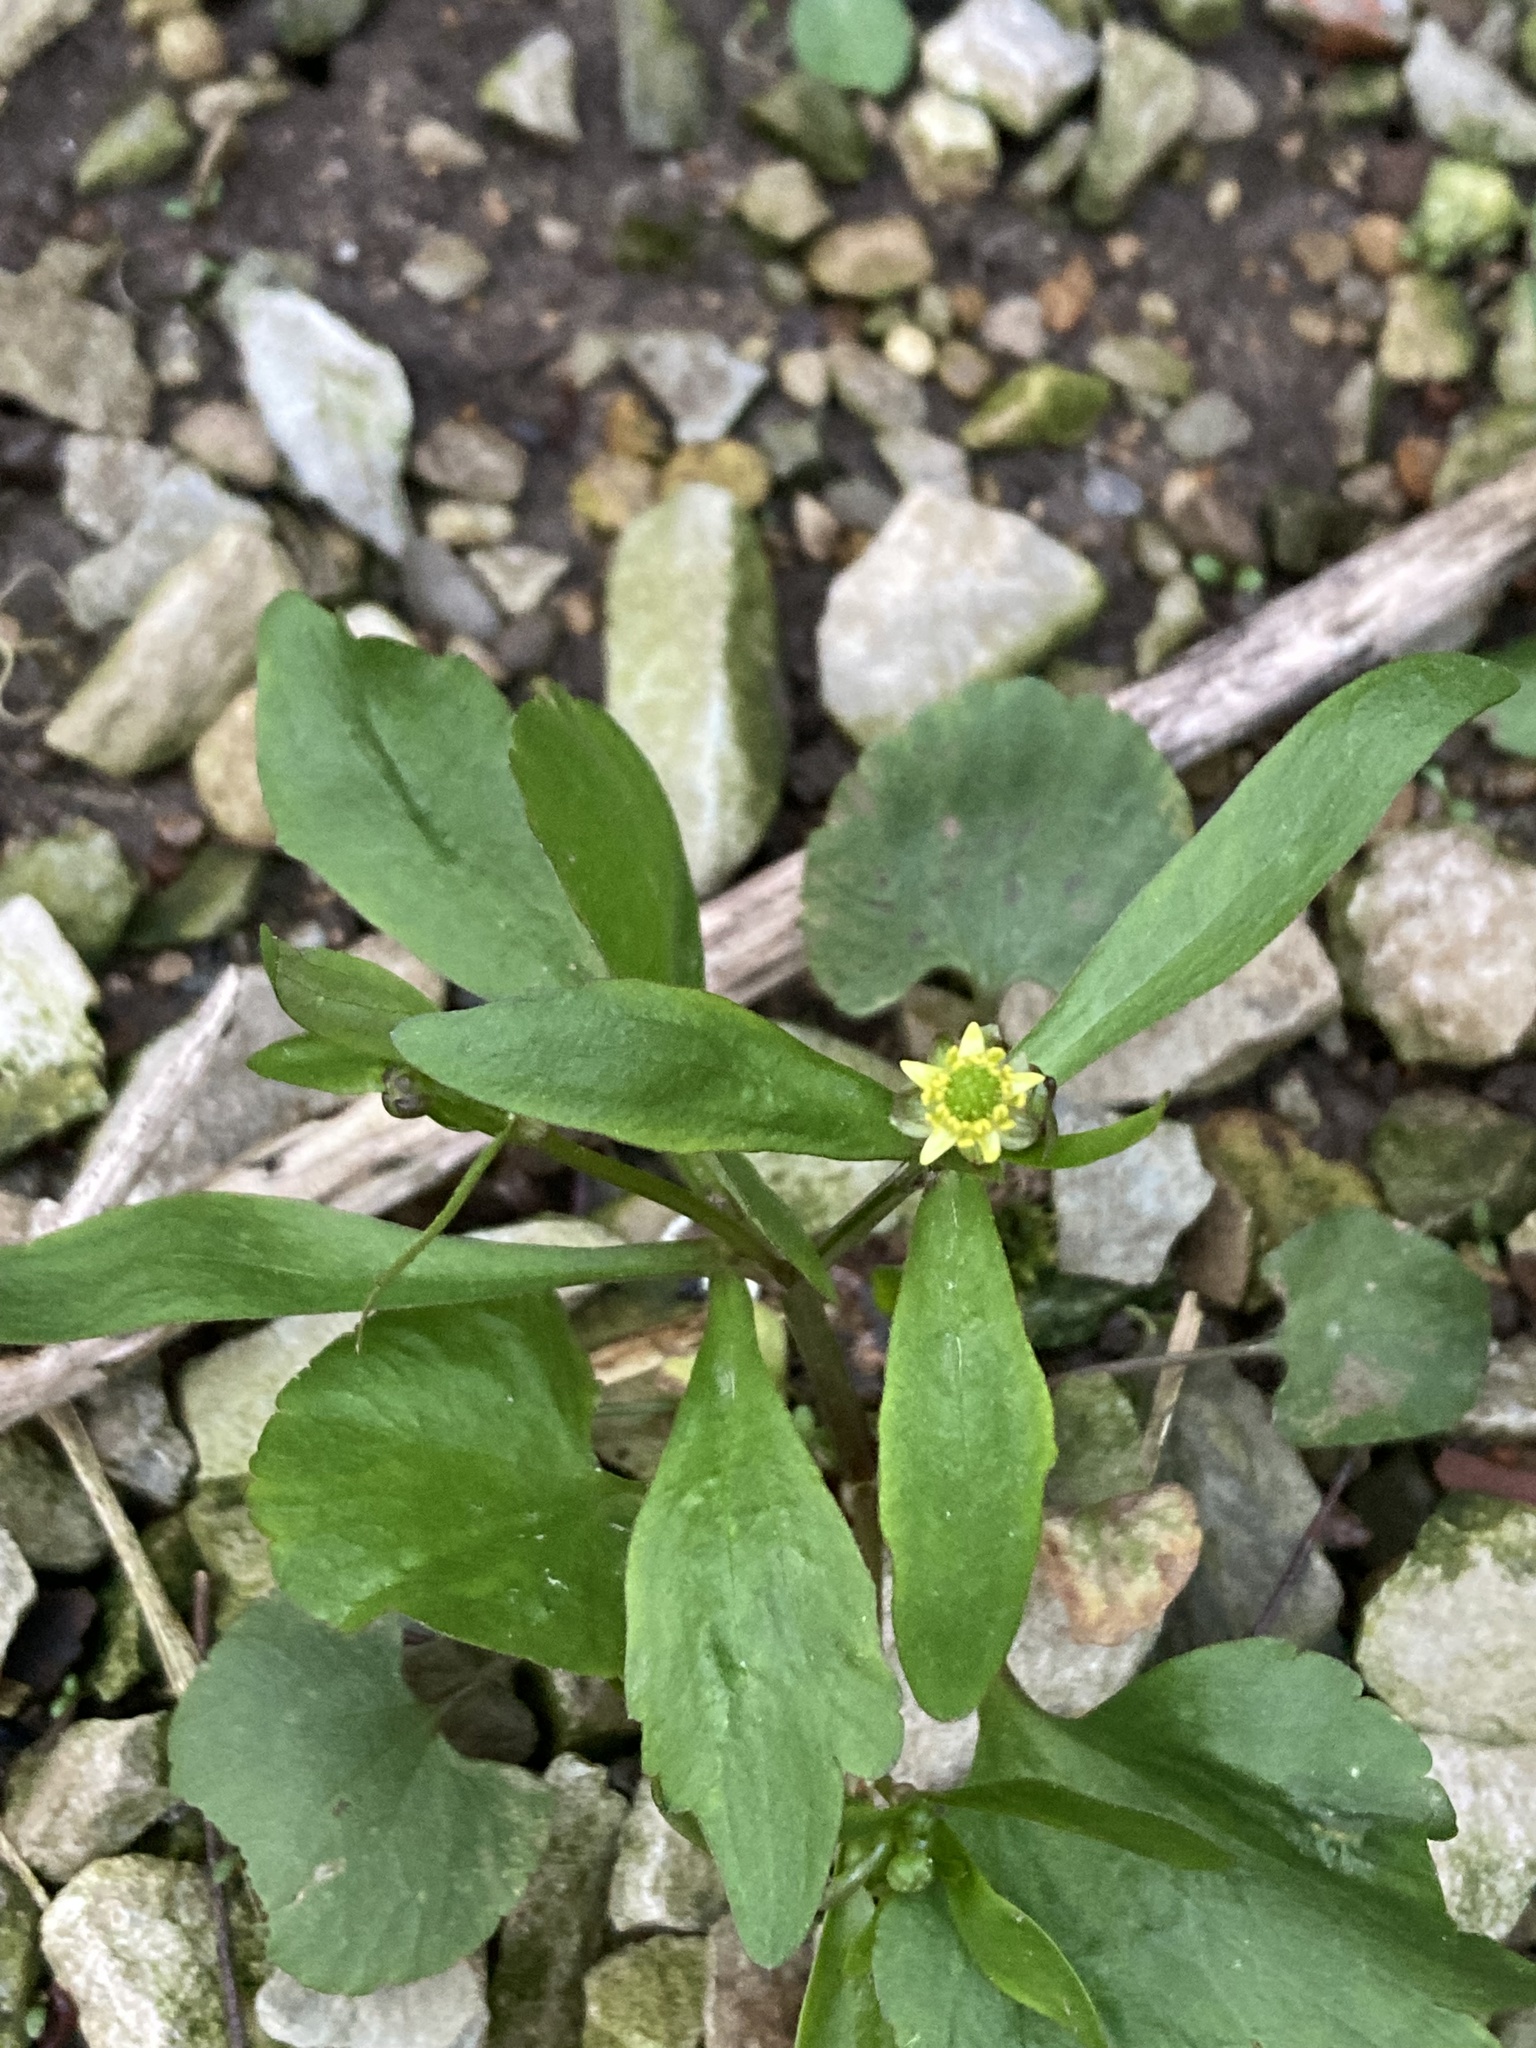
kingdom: Plantae
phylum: Tracheophyta
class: Magnoliopsida
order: Ranunculales
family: Ranunculaceae
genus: Ranunculus
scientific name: Ranunculus abortivus
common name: Early wood buttercup
